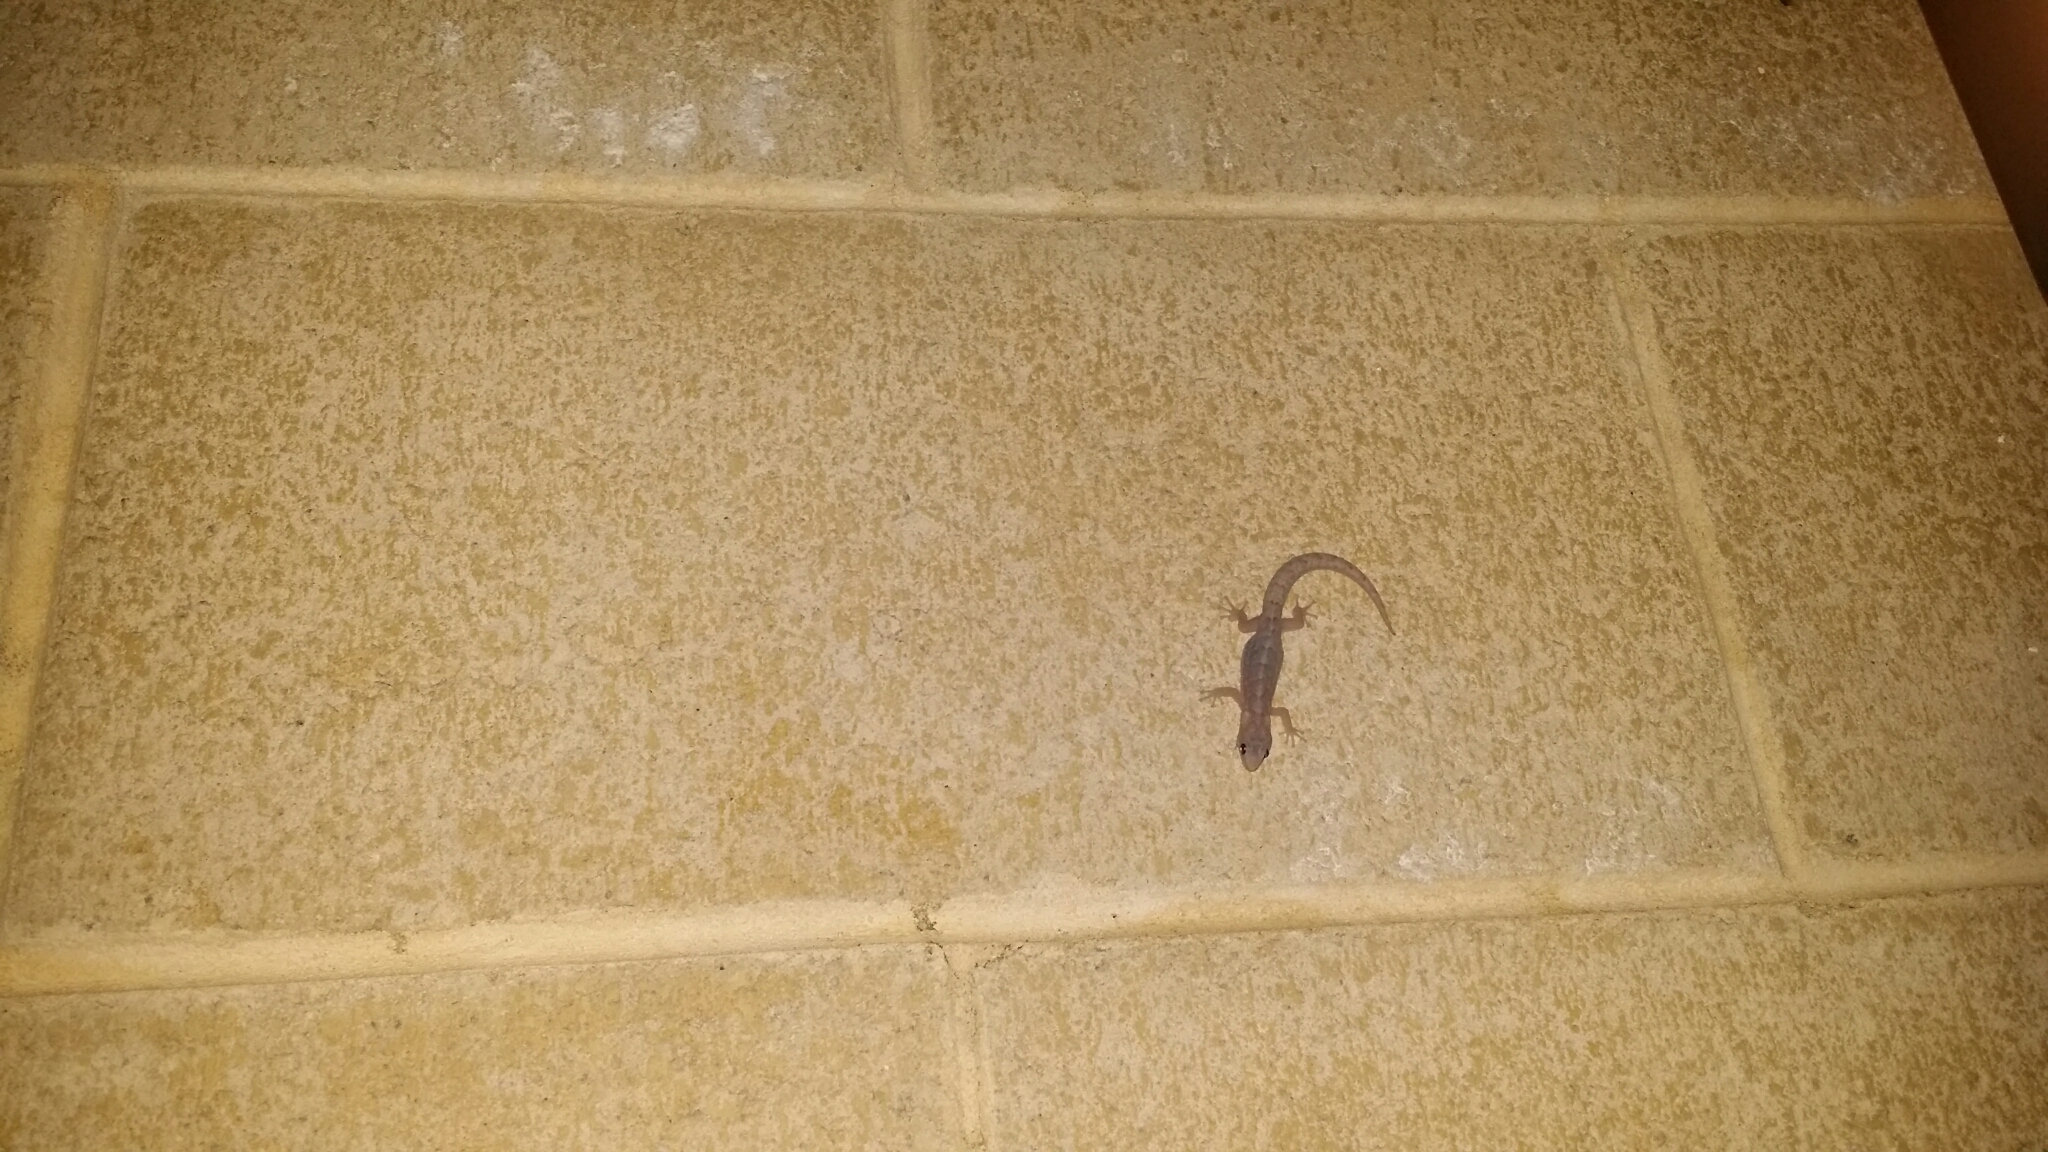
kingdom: Animalia
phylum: Chordata
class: Squamata
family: Gekkonidae
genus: Christinus
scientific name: Christinus marmoratus
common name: Marbled gecko
